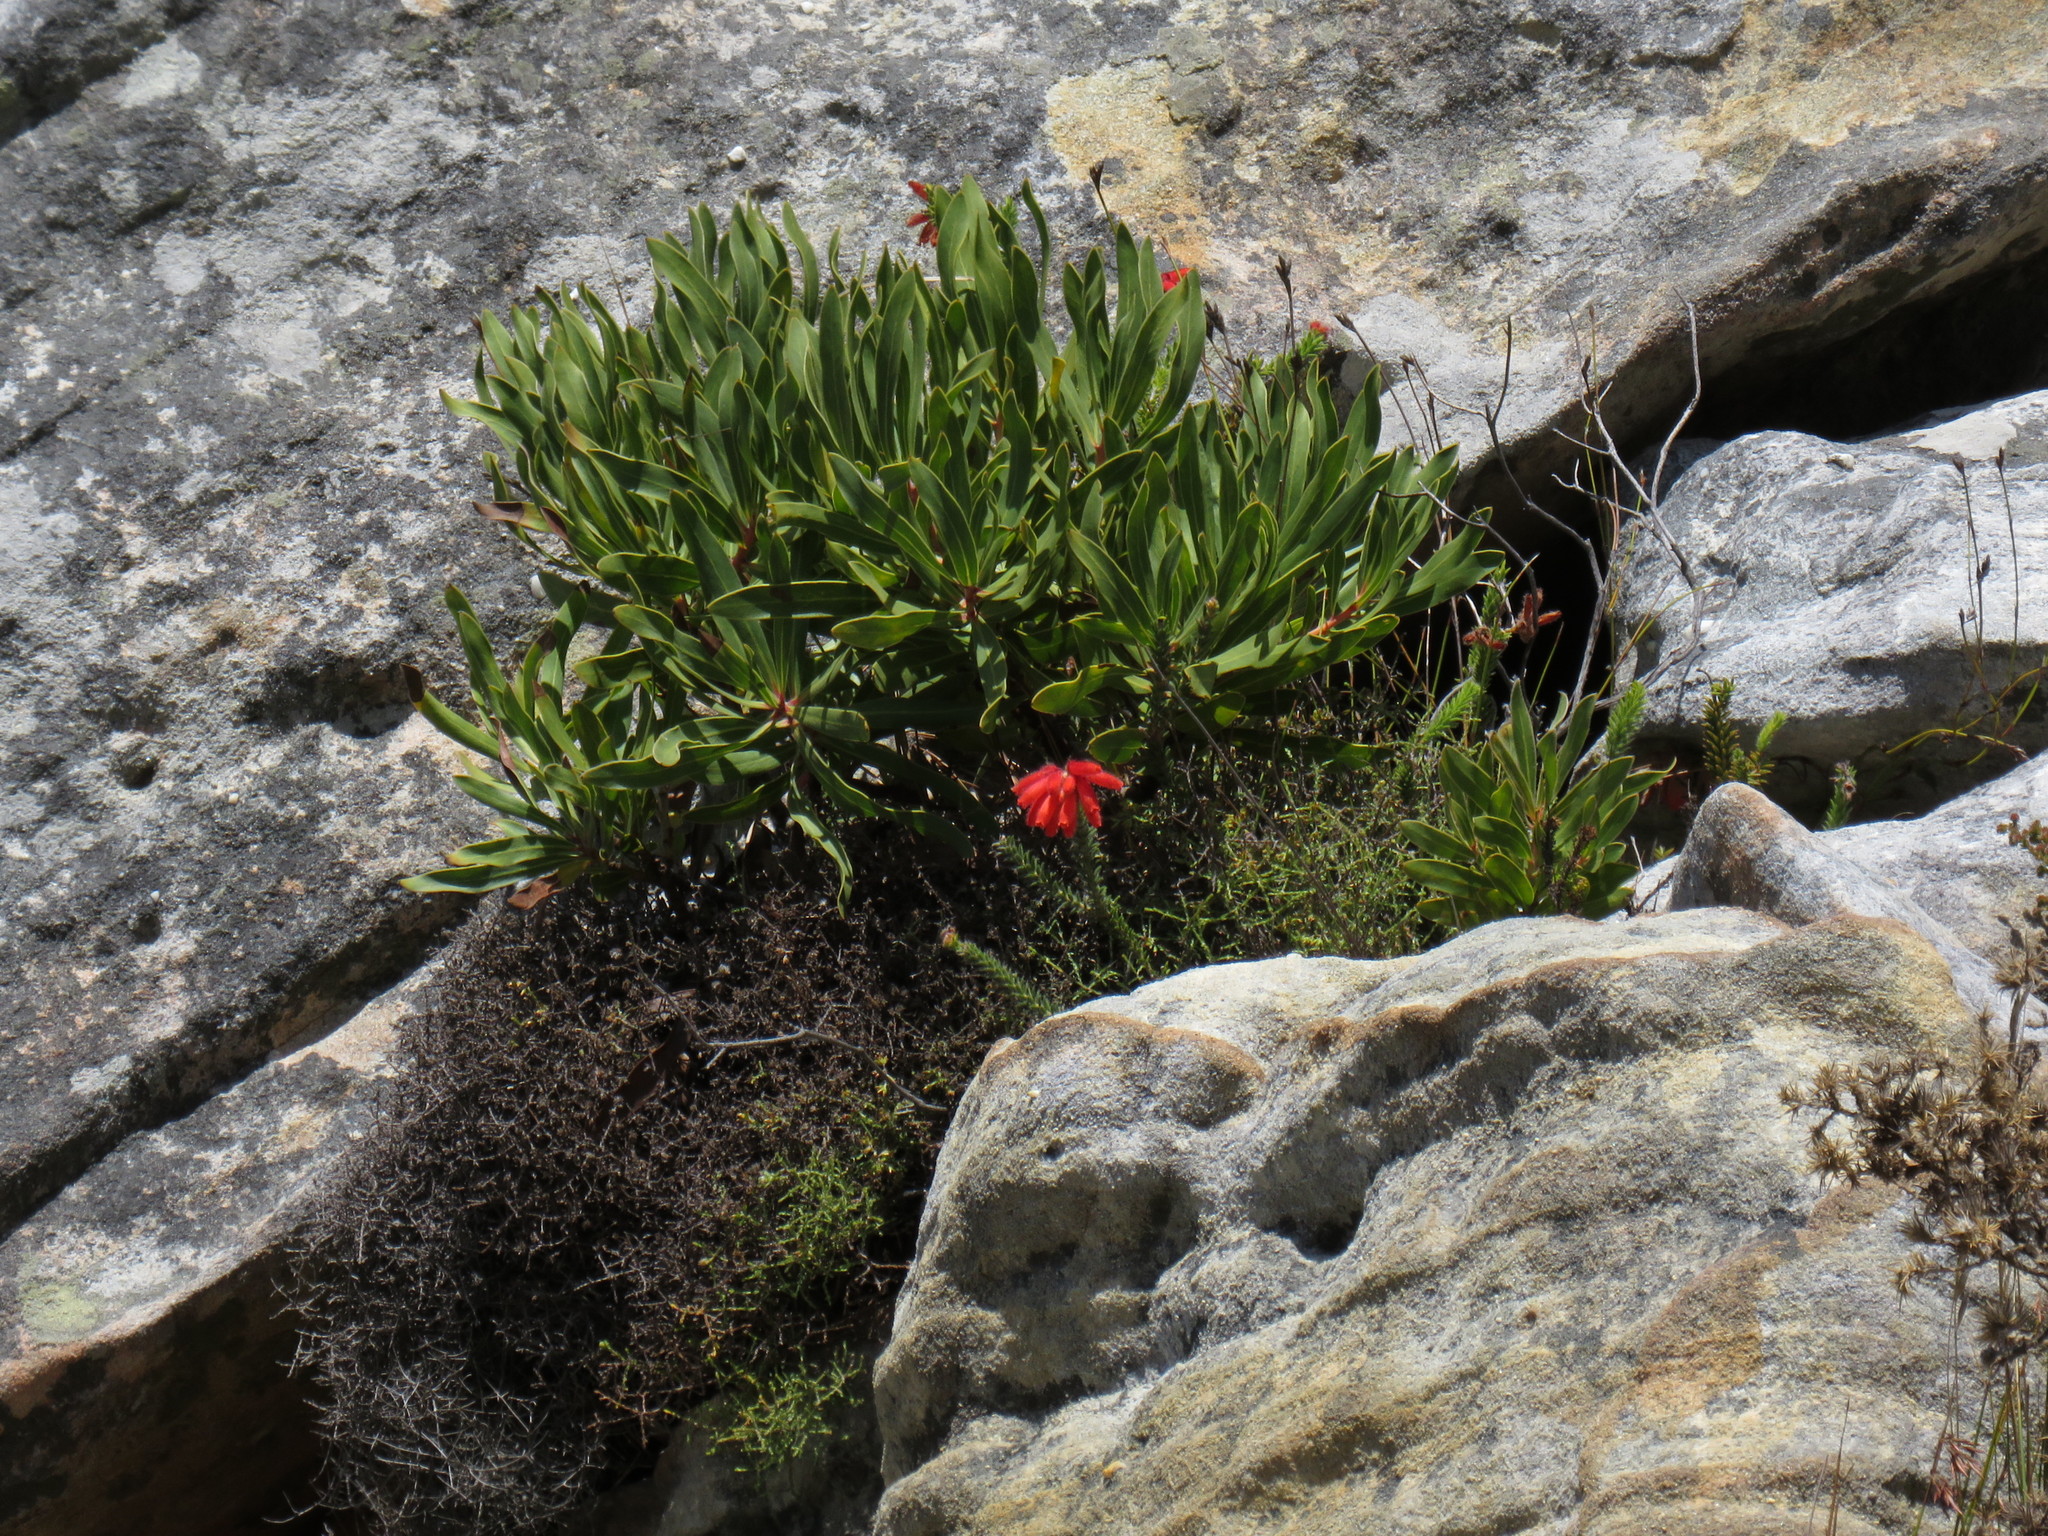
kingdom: Plantae
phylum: Tracheophyta
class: Magnoliopsida
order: Ericales
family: Ericaceae
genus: Erica
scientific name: Erica cerinthoides
